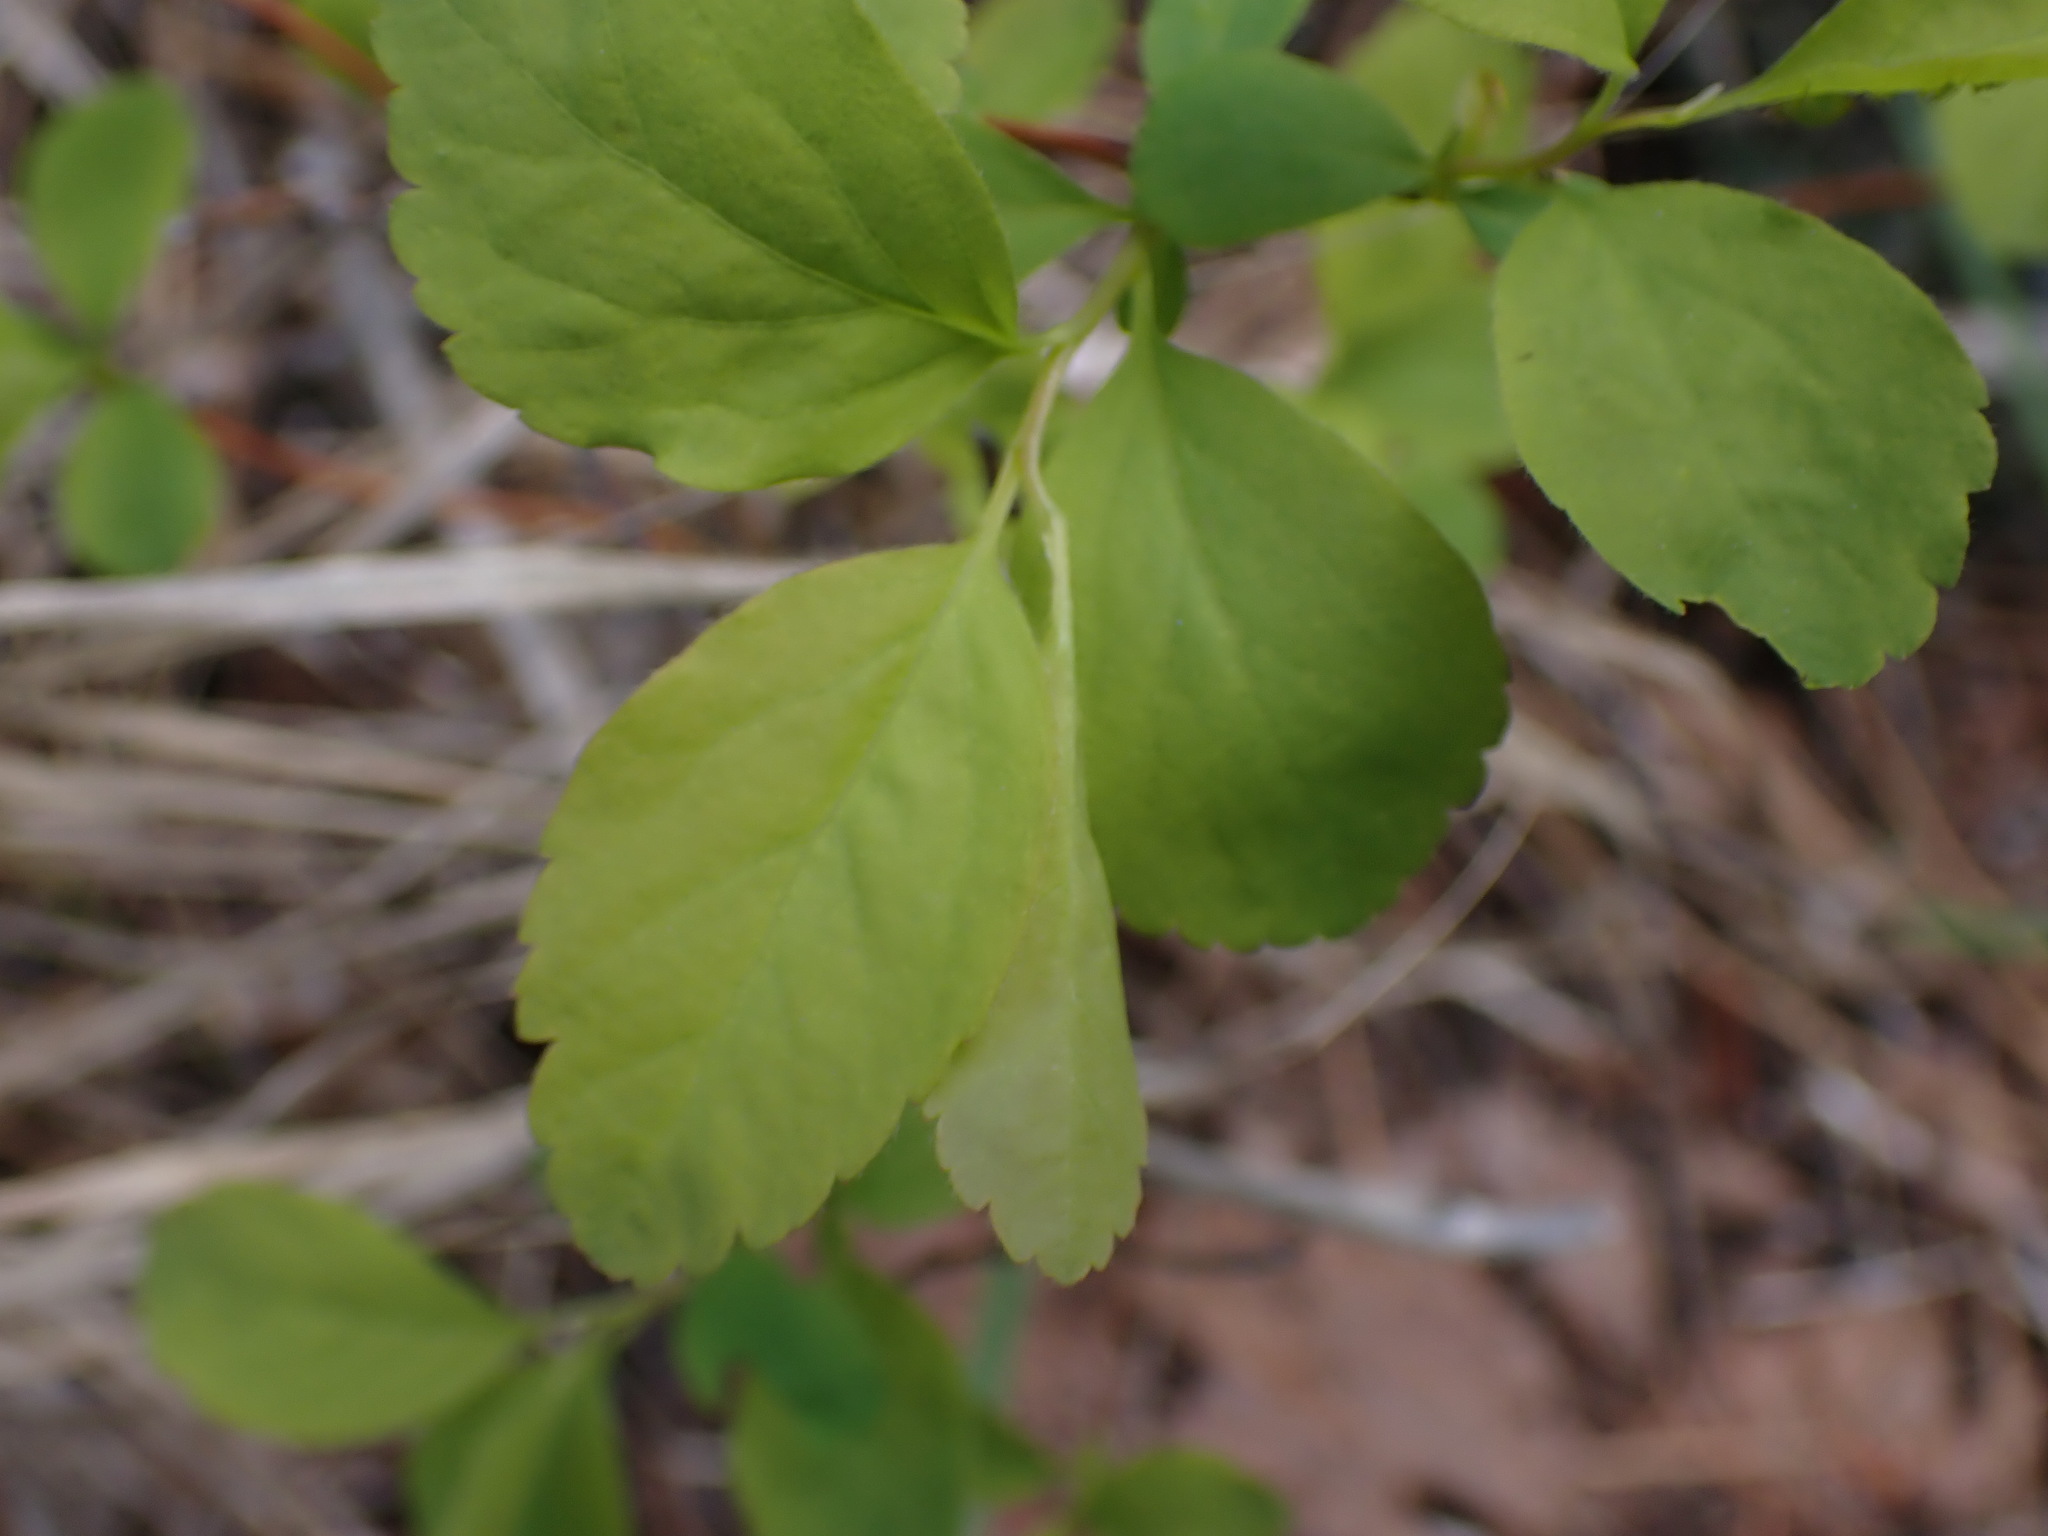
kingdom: Plantae
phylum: Tracheophyta
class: Magnoliopsida
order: Rosales
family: Rosaceae
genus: Spiraea
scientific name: Spiraea lucida
